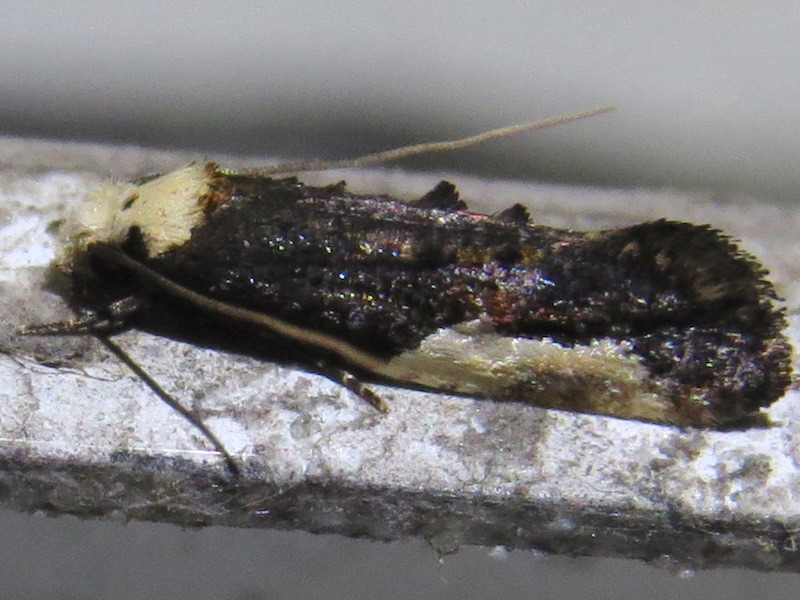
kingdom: Animalia
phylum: Arthropoda
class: Insecta
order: Lepidoptera
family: Tineidae
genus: Monopis
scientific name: Monopis longella
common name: Pavlovski's monopis moth
